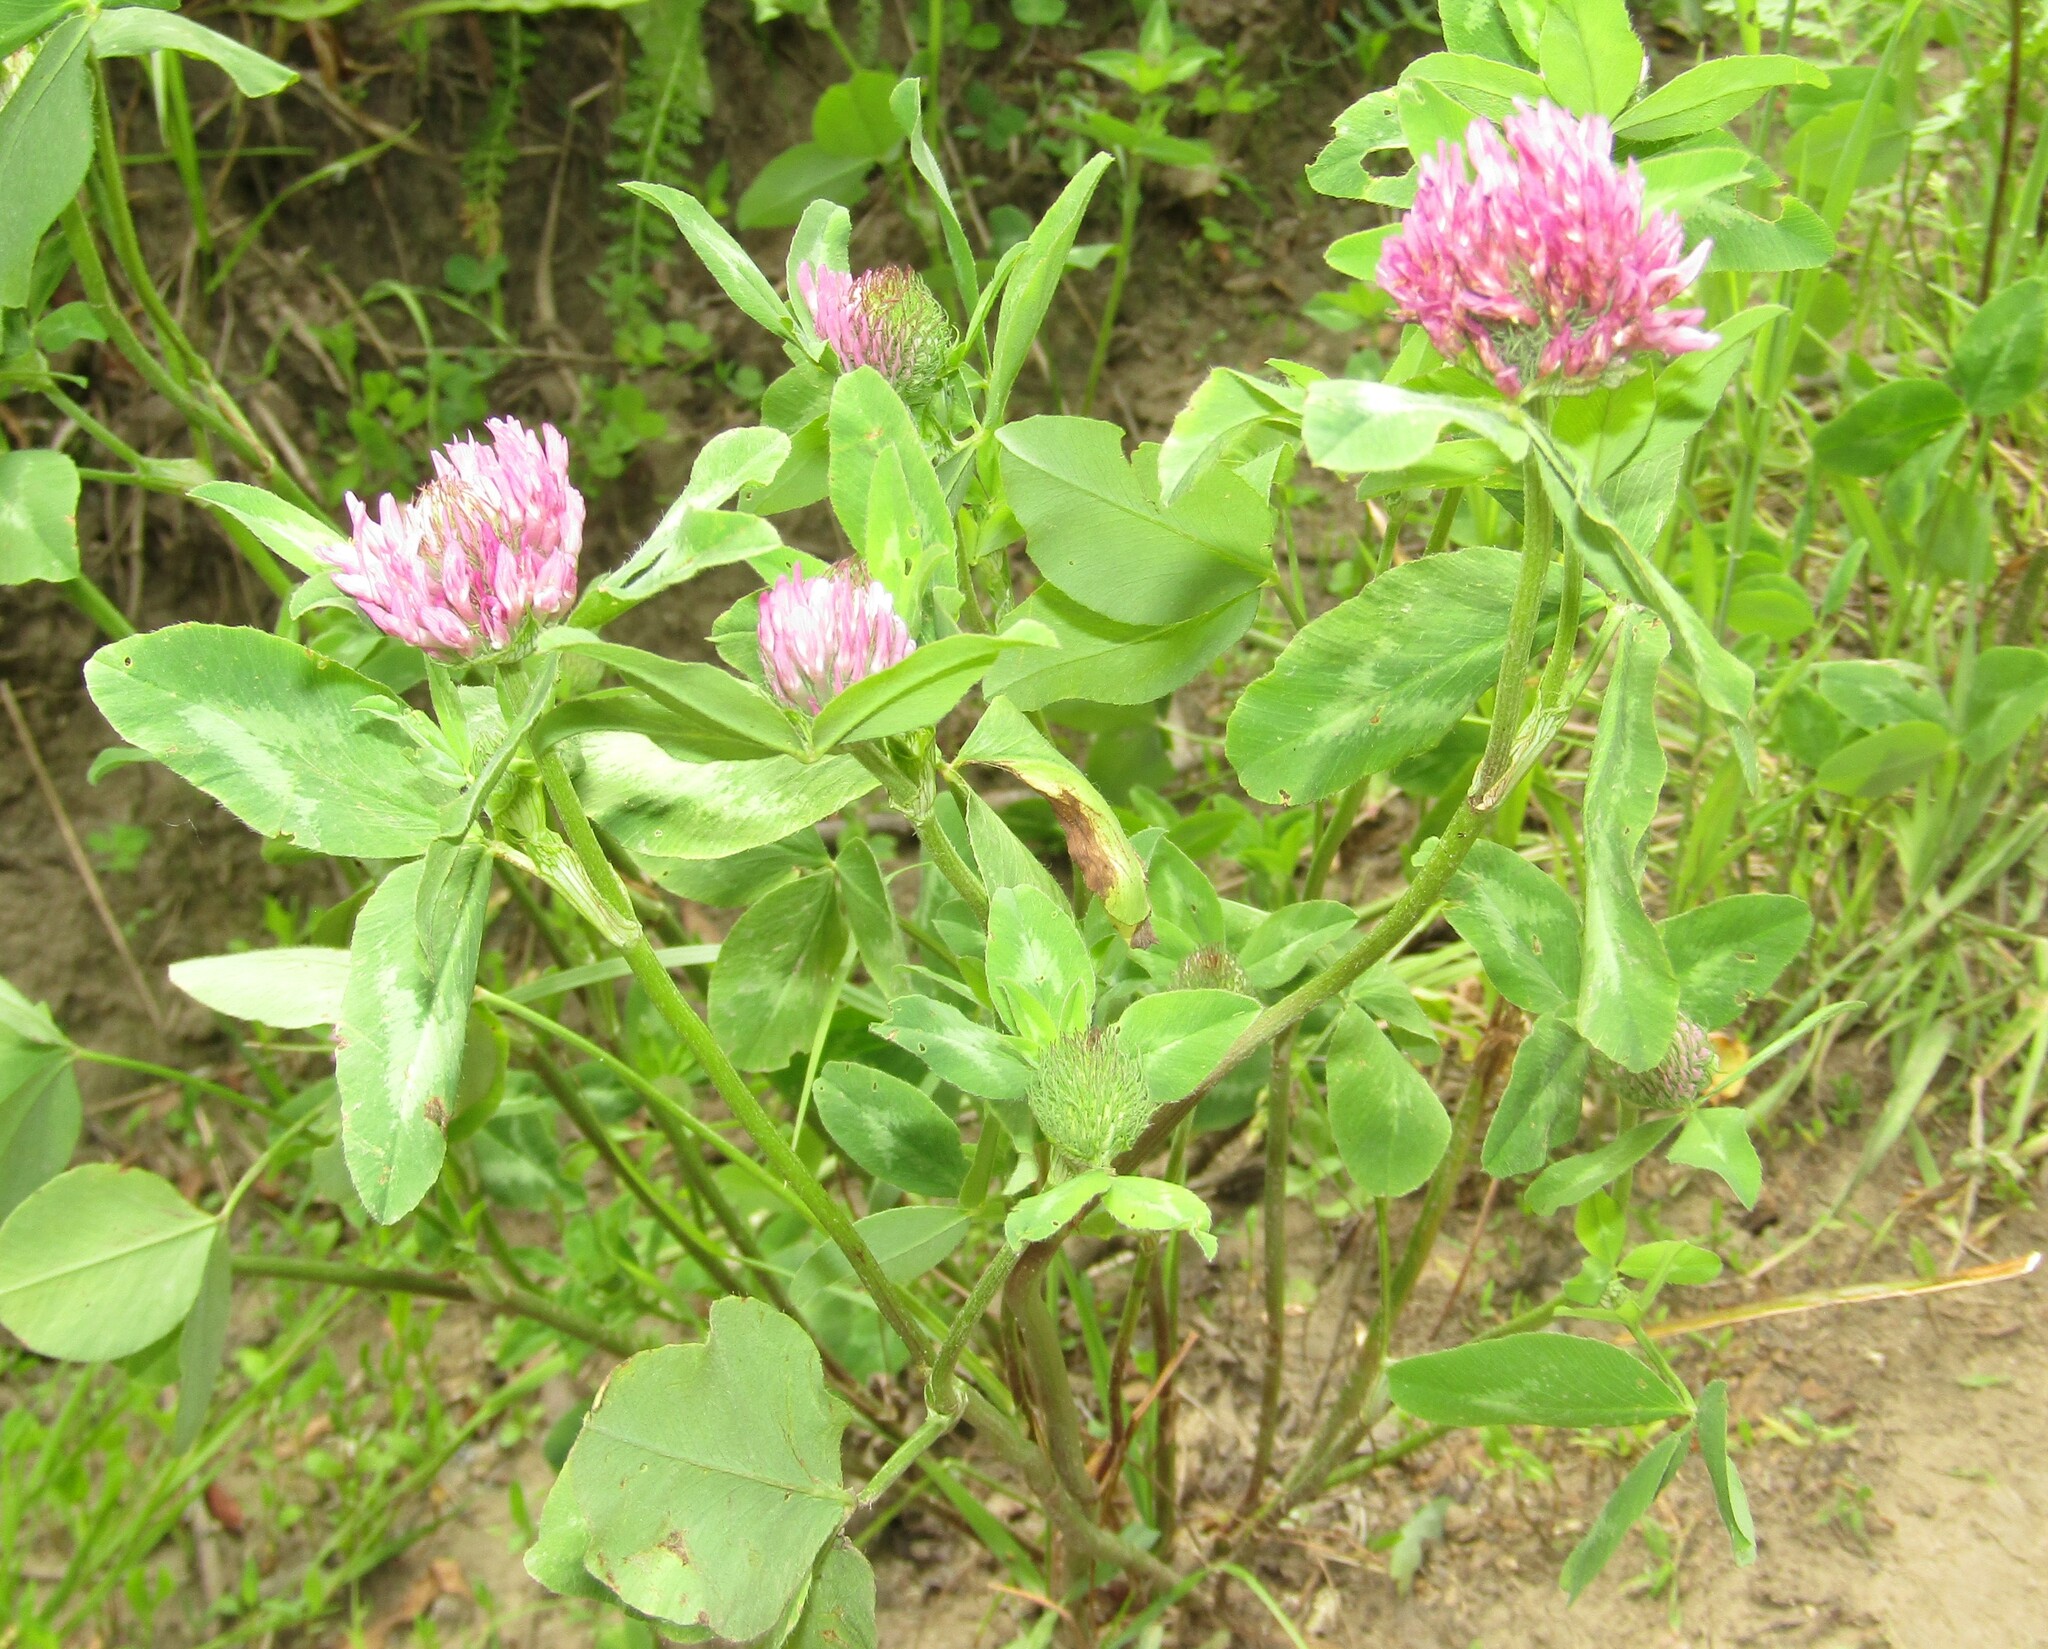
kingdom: Plantae
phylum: Tracheophyta
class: Magnoliopsida
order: Fabales
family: Fabaceae
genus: Trifolium
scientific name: Trifolium pratense
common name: Red clover
